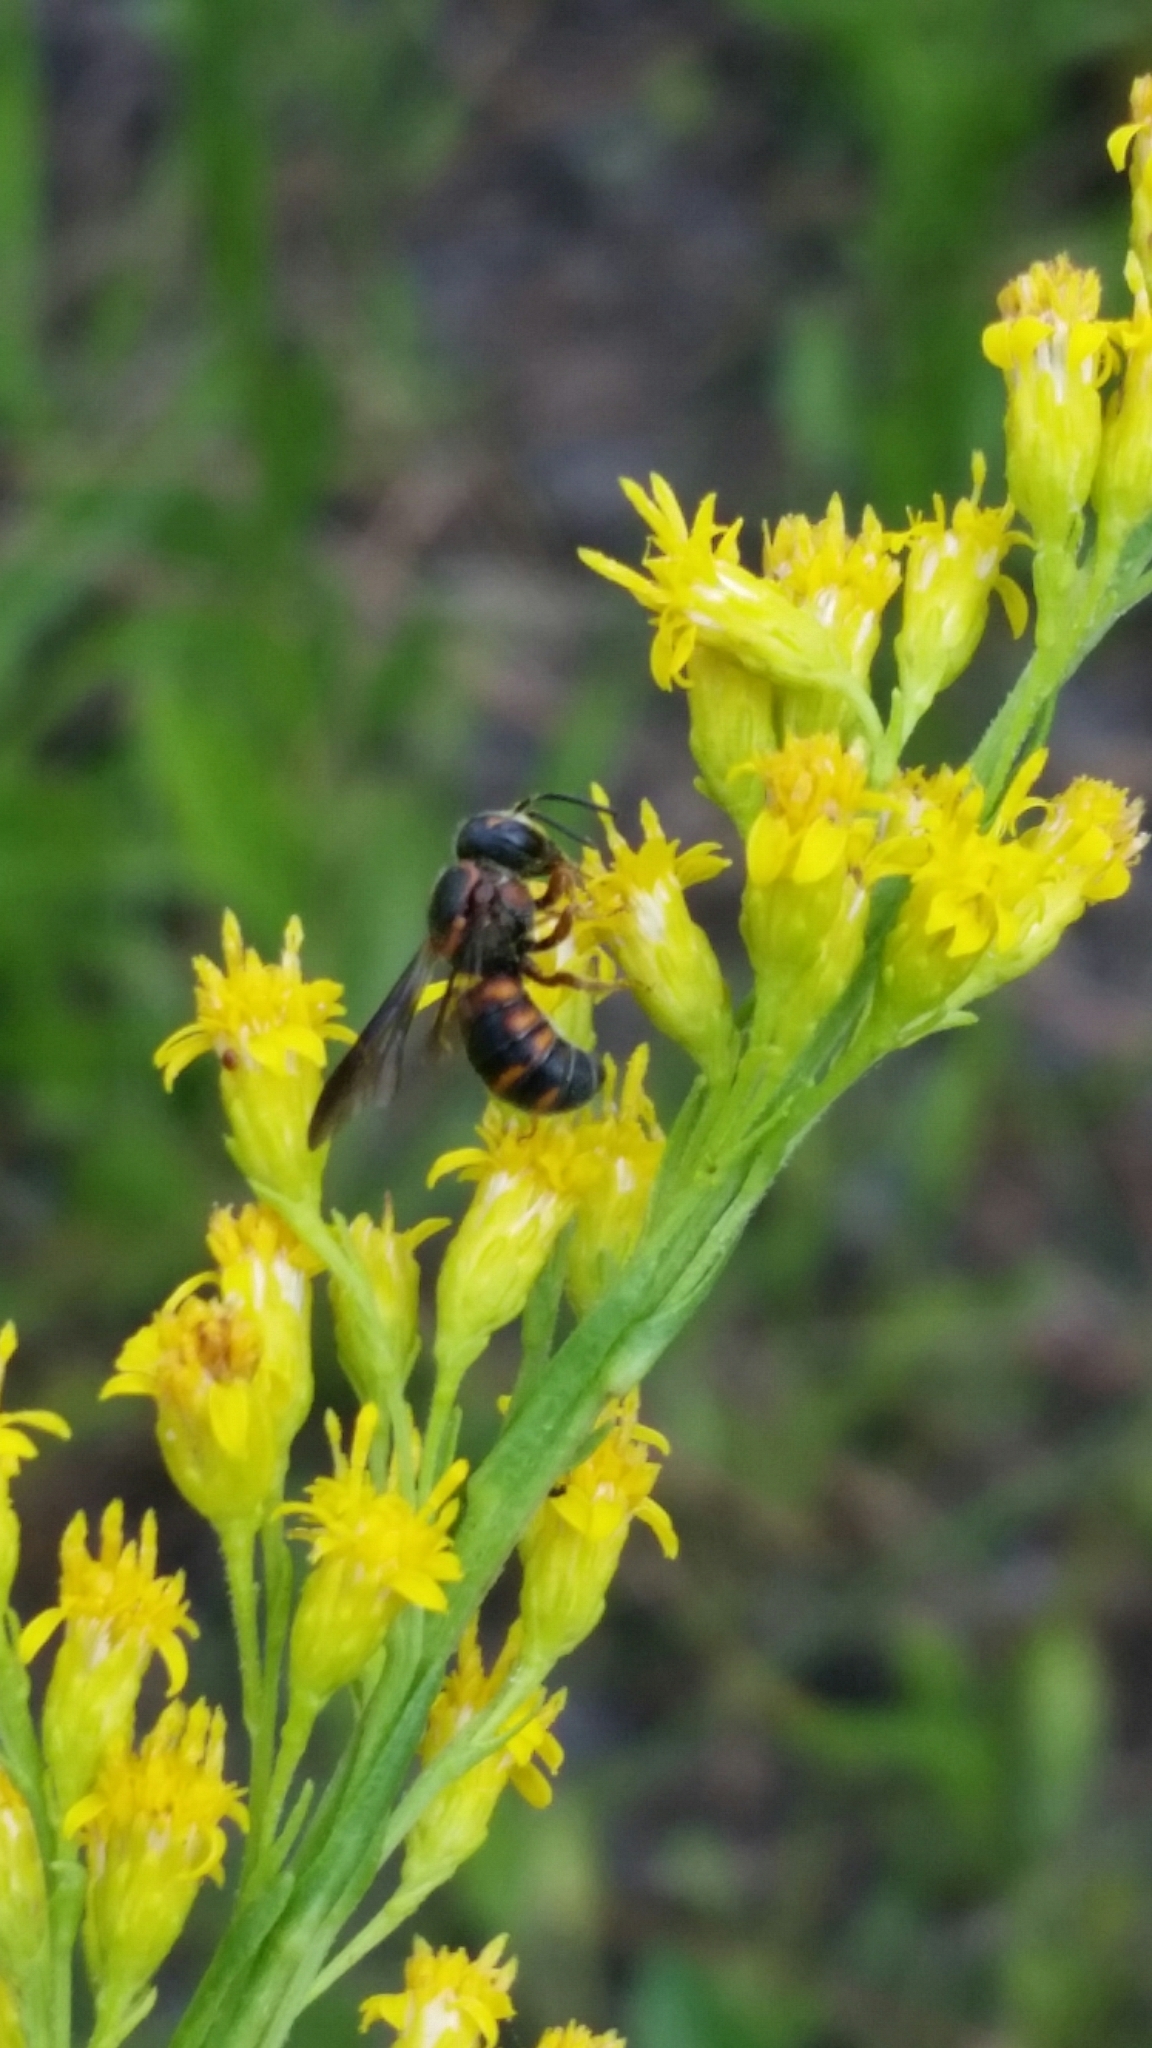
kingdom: Animalia
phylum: Arthropoda
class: Insecta
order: Hymenoptera
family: Megachilidae
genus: Stelis
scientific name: Stelis louisae
